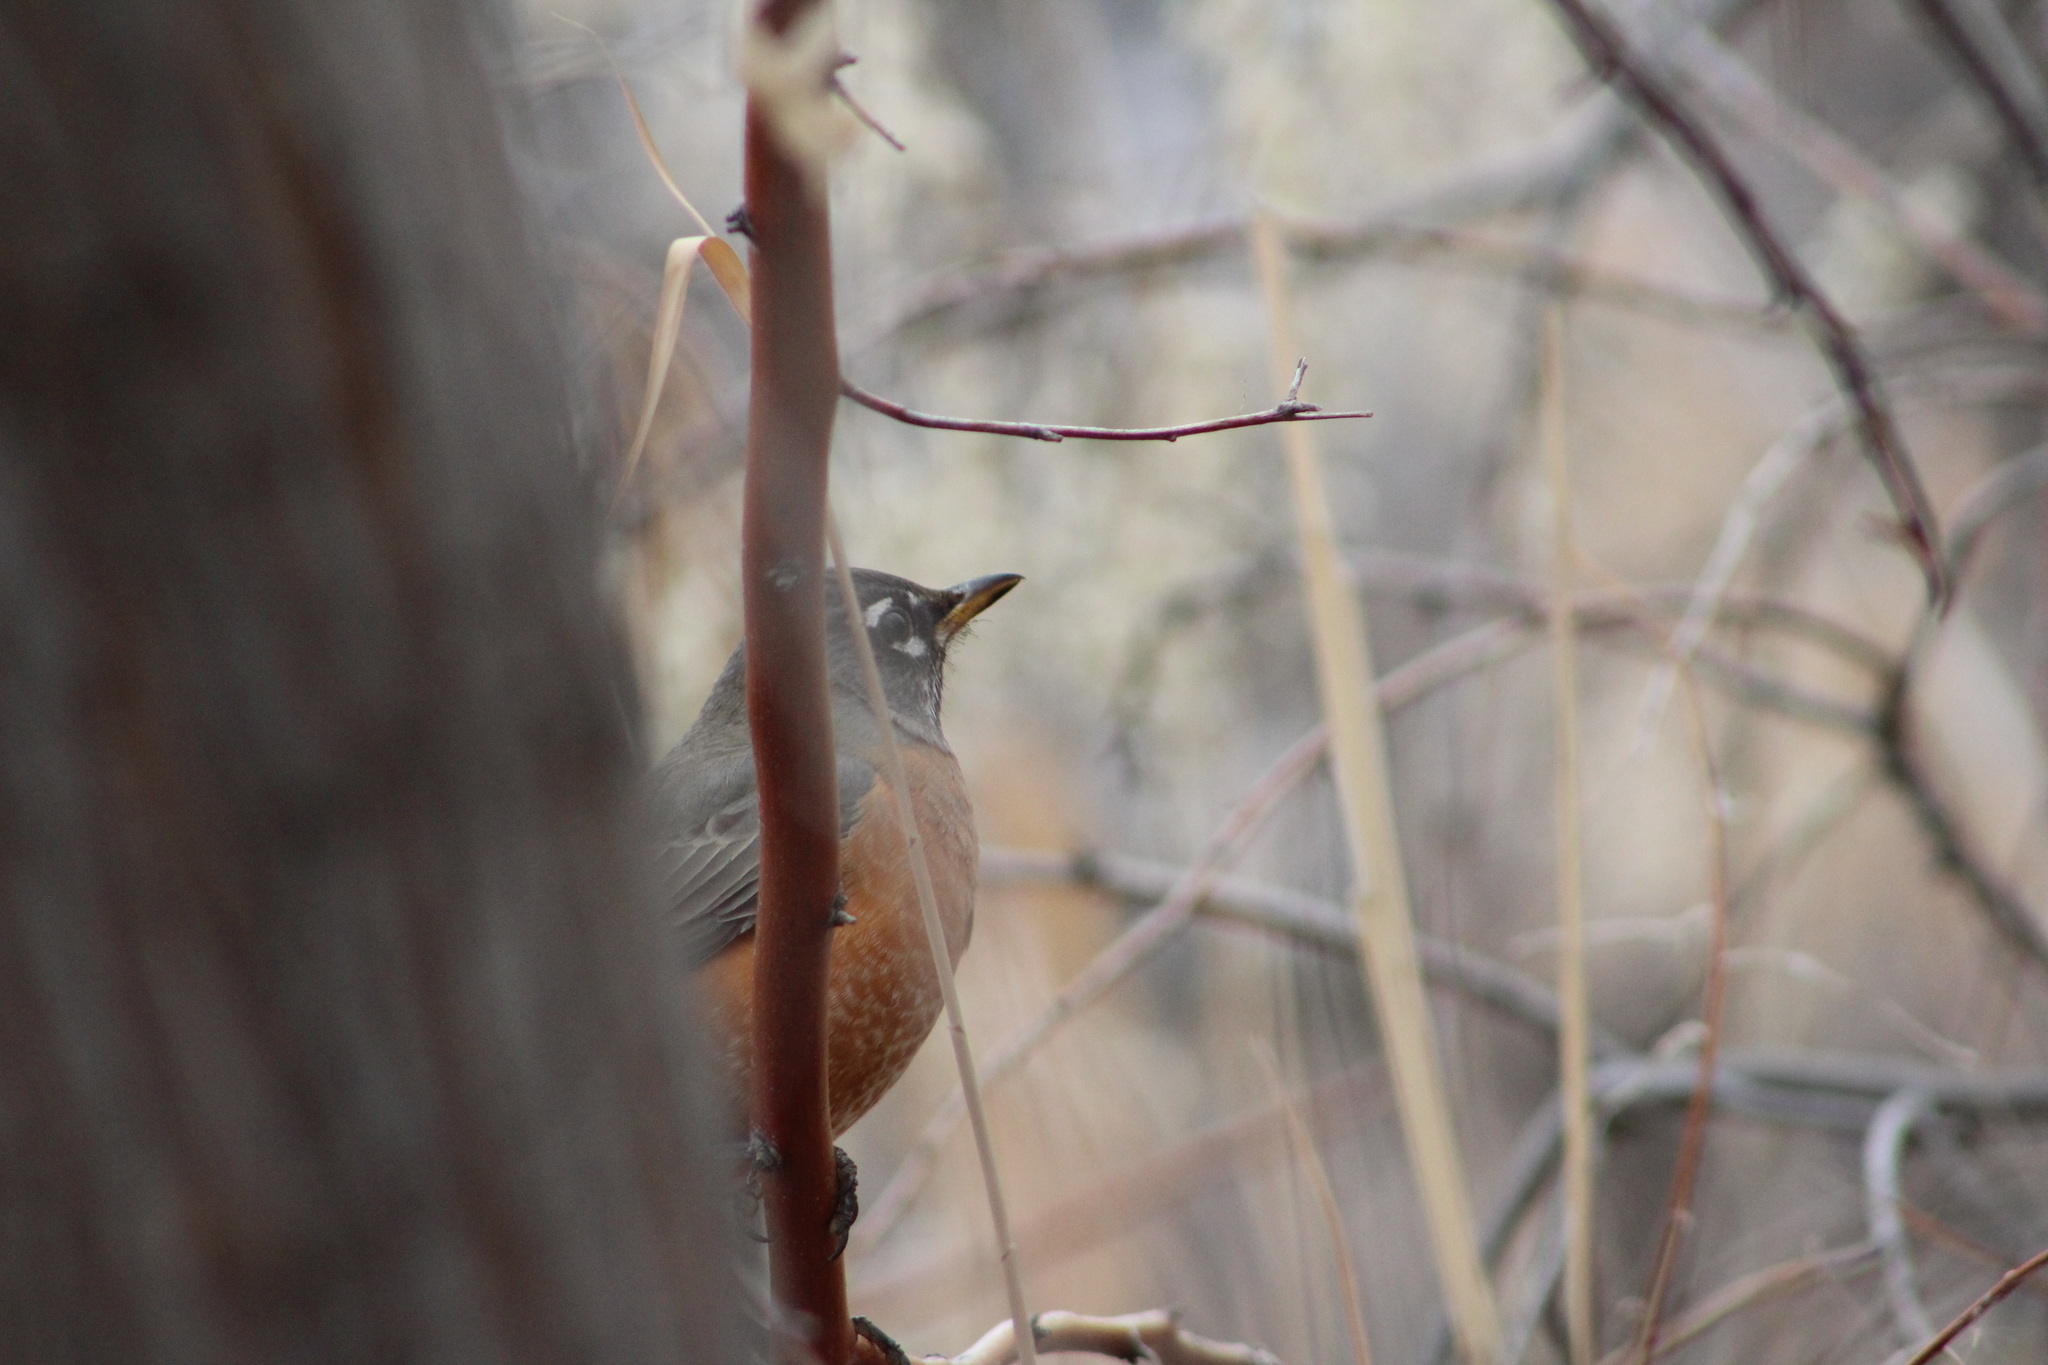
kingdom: Animalia
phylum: Chordata
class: Aves
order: Passeriformes
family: Turdidae
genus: Turdus
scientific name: Turdus migratorius
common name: American robin
